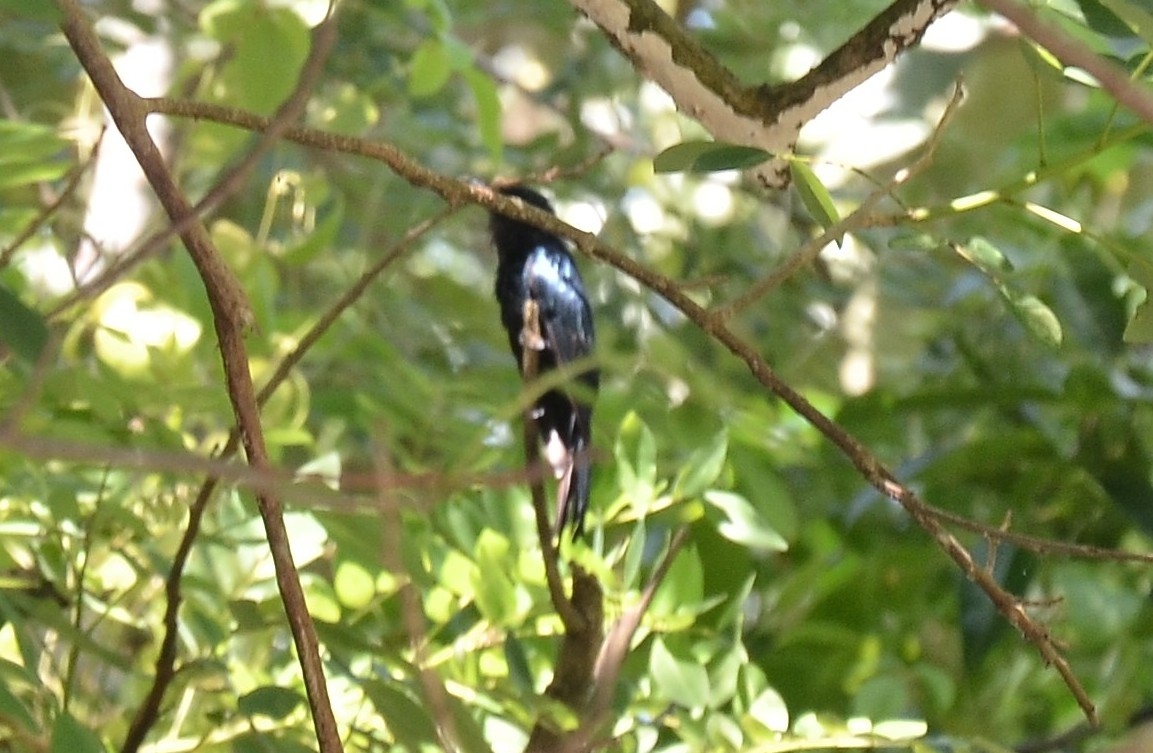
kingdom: Animalia
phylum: Chordata
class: Aves
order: Passeriformes
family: Dicruridae
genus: Dicrurus
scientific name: Dicrurus aeneus
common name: Bronzed drongo
